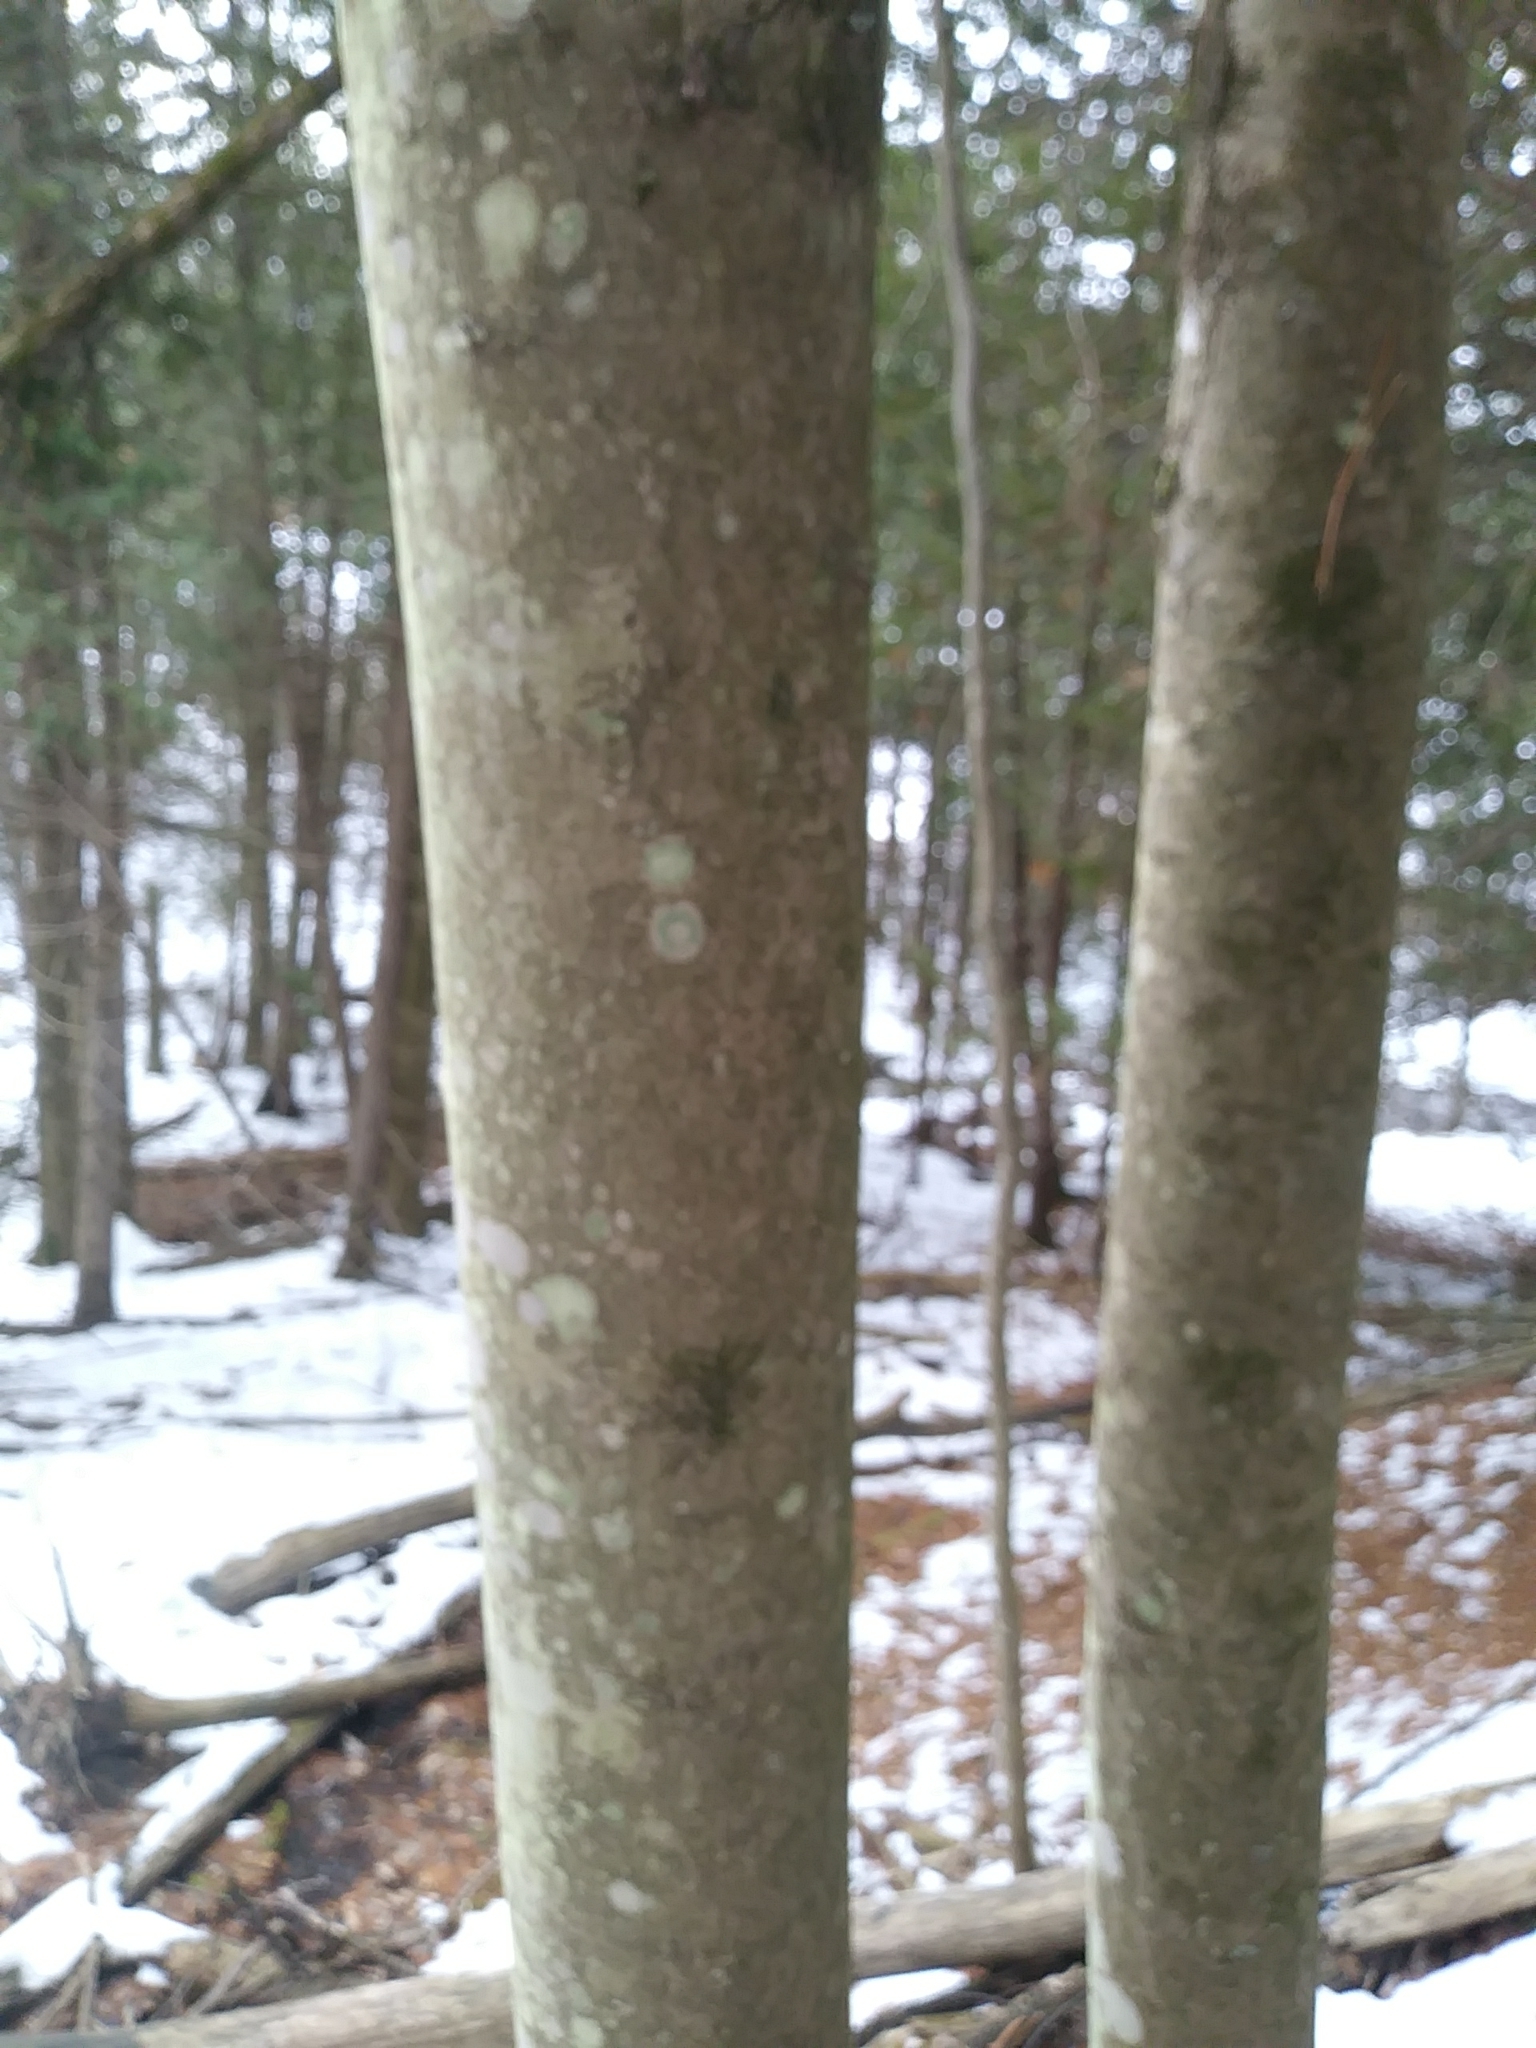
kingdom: Plantae
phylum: Tracheophyta
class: Magnoliopsida
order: Sapindales
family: Sapindaceae
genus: Acer
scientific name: Acer rubrum
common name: Red maple
